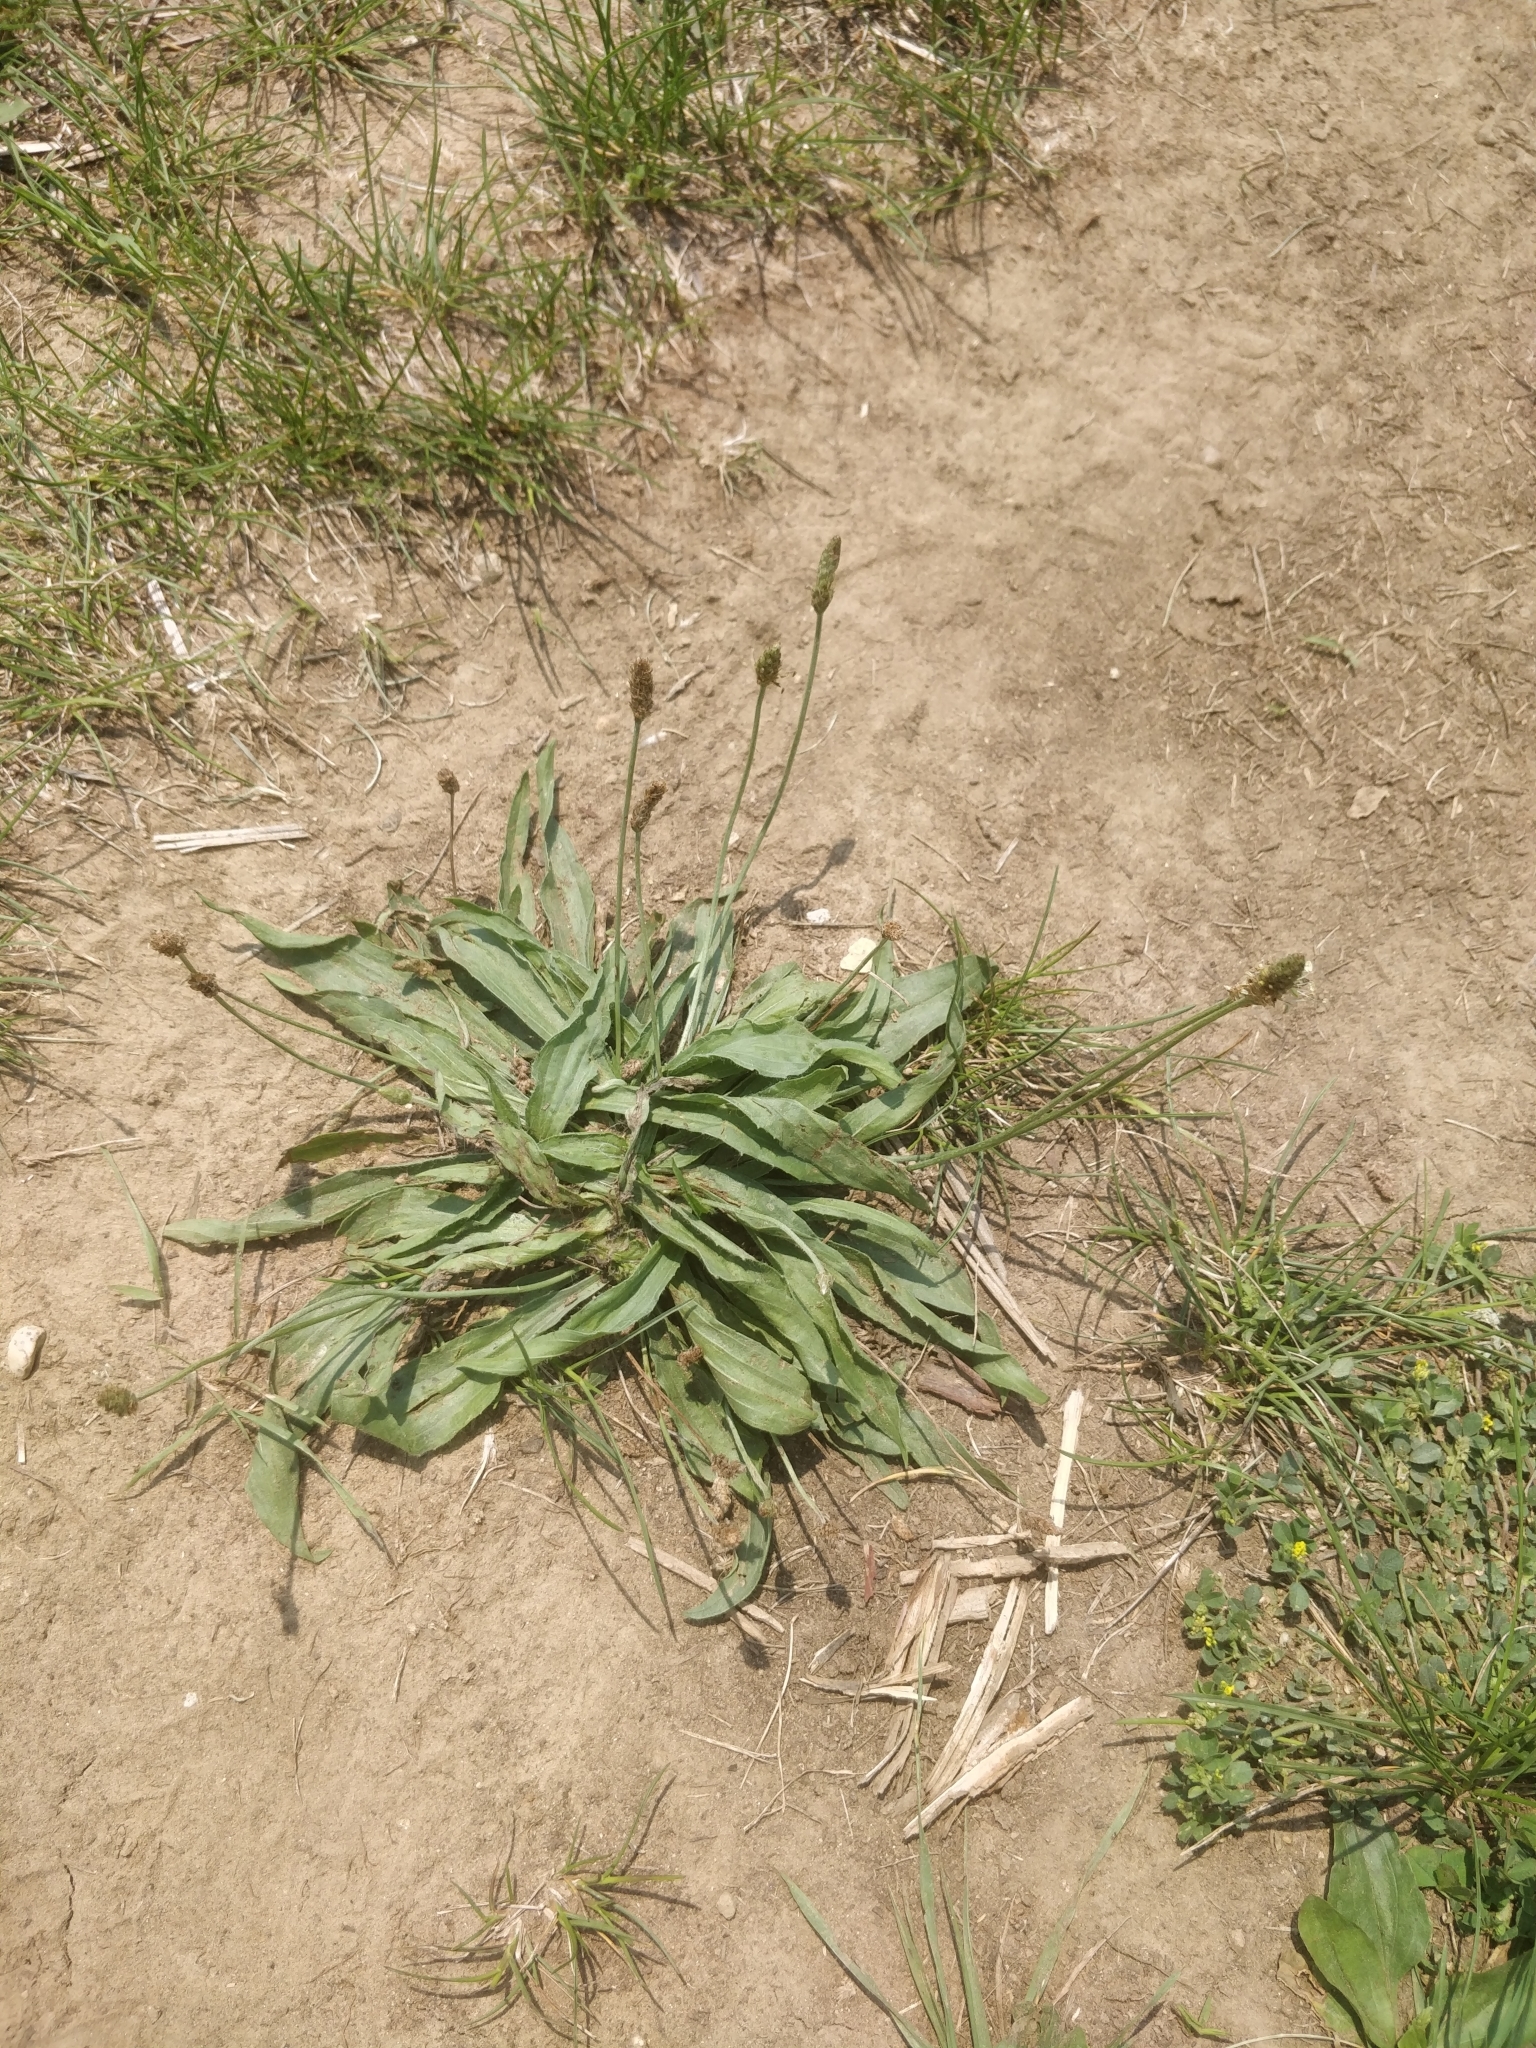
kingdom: Plantae
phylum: Tracheophyta
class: Magnoliopsida
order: Lamiales
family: Plantaginaceae
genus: Plantago
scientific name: Plantago lanceolata
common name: Ribwort plantain
